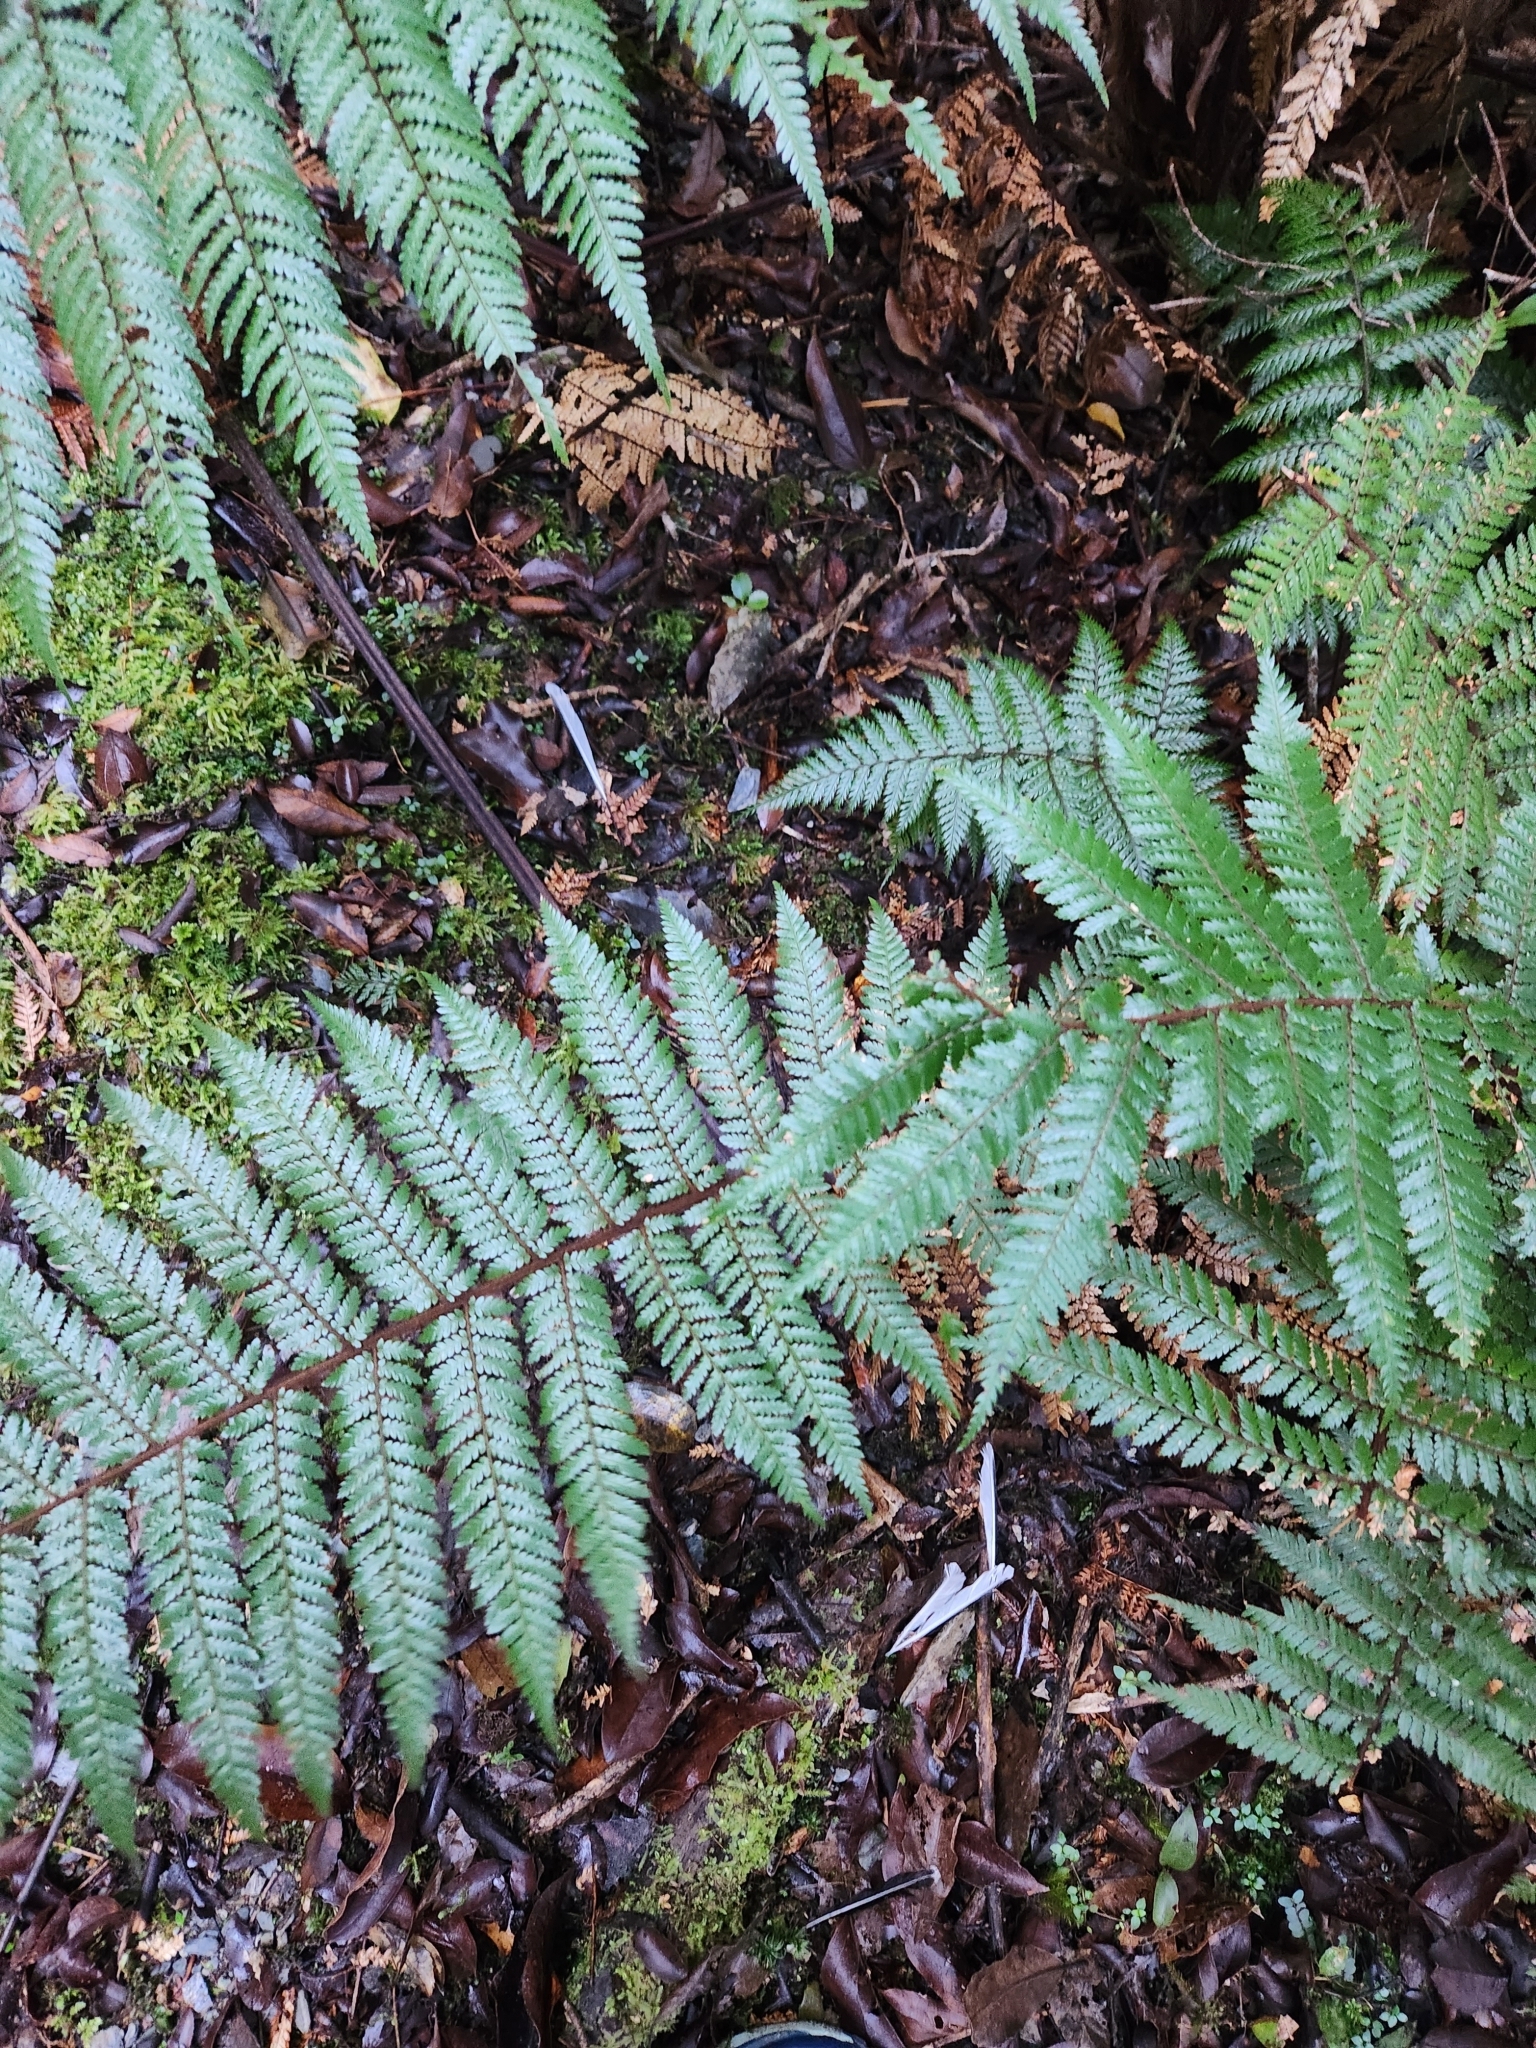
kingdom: Animalia
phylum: Chordata
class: Aves
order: Passeriformes
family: Rhipiduridae
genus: Rhipidura
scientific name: Rhipidura fuliginosa
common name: New zealand fantail
